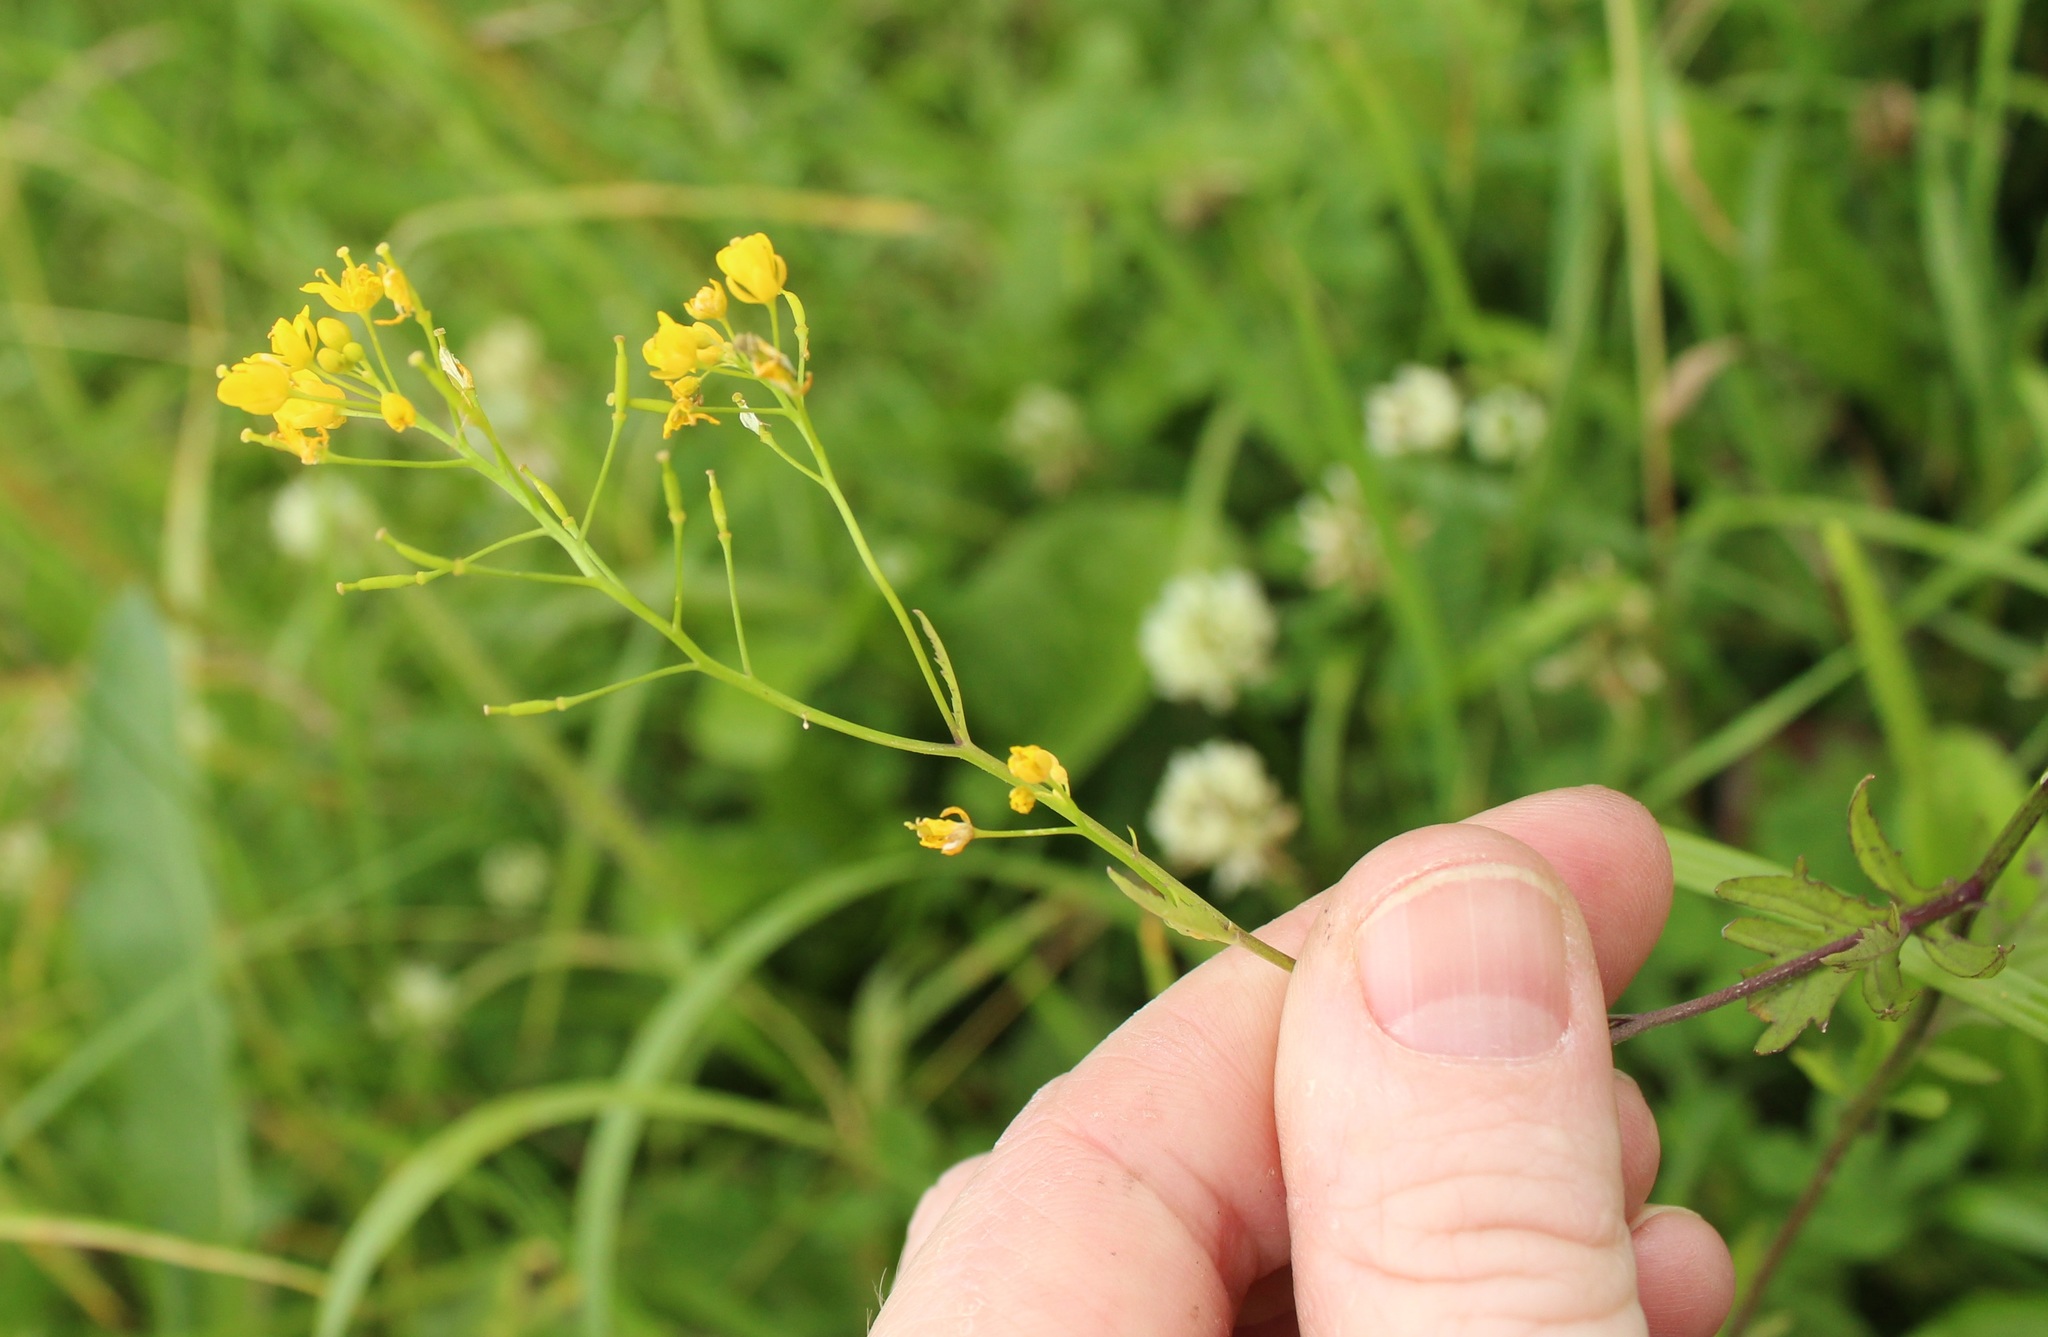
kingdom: Plantae
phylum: Tracheophyta
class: Magnoliopsida
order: Brassicales
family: Brassicaceae
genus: Rorippa
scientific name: Rorippa sylvestris
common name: Creeping yellowcress
